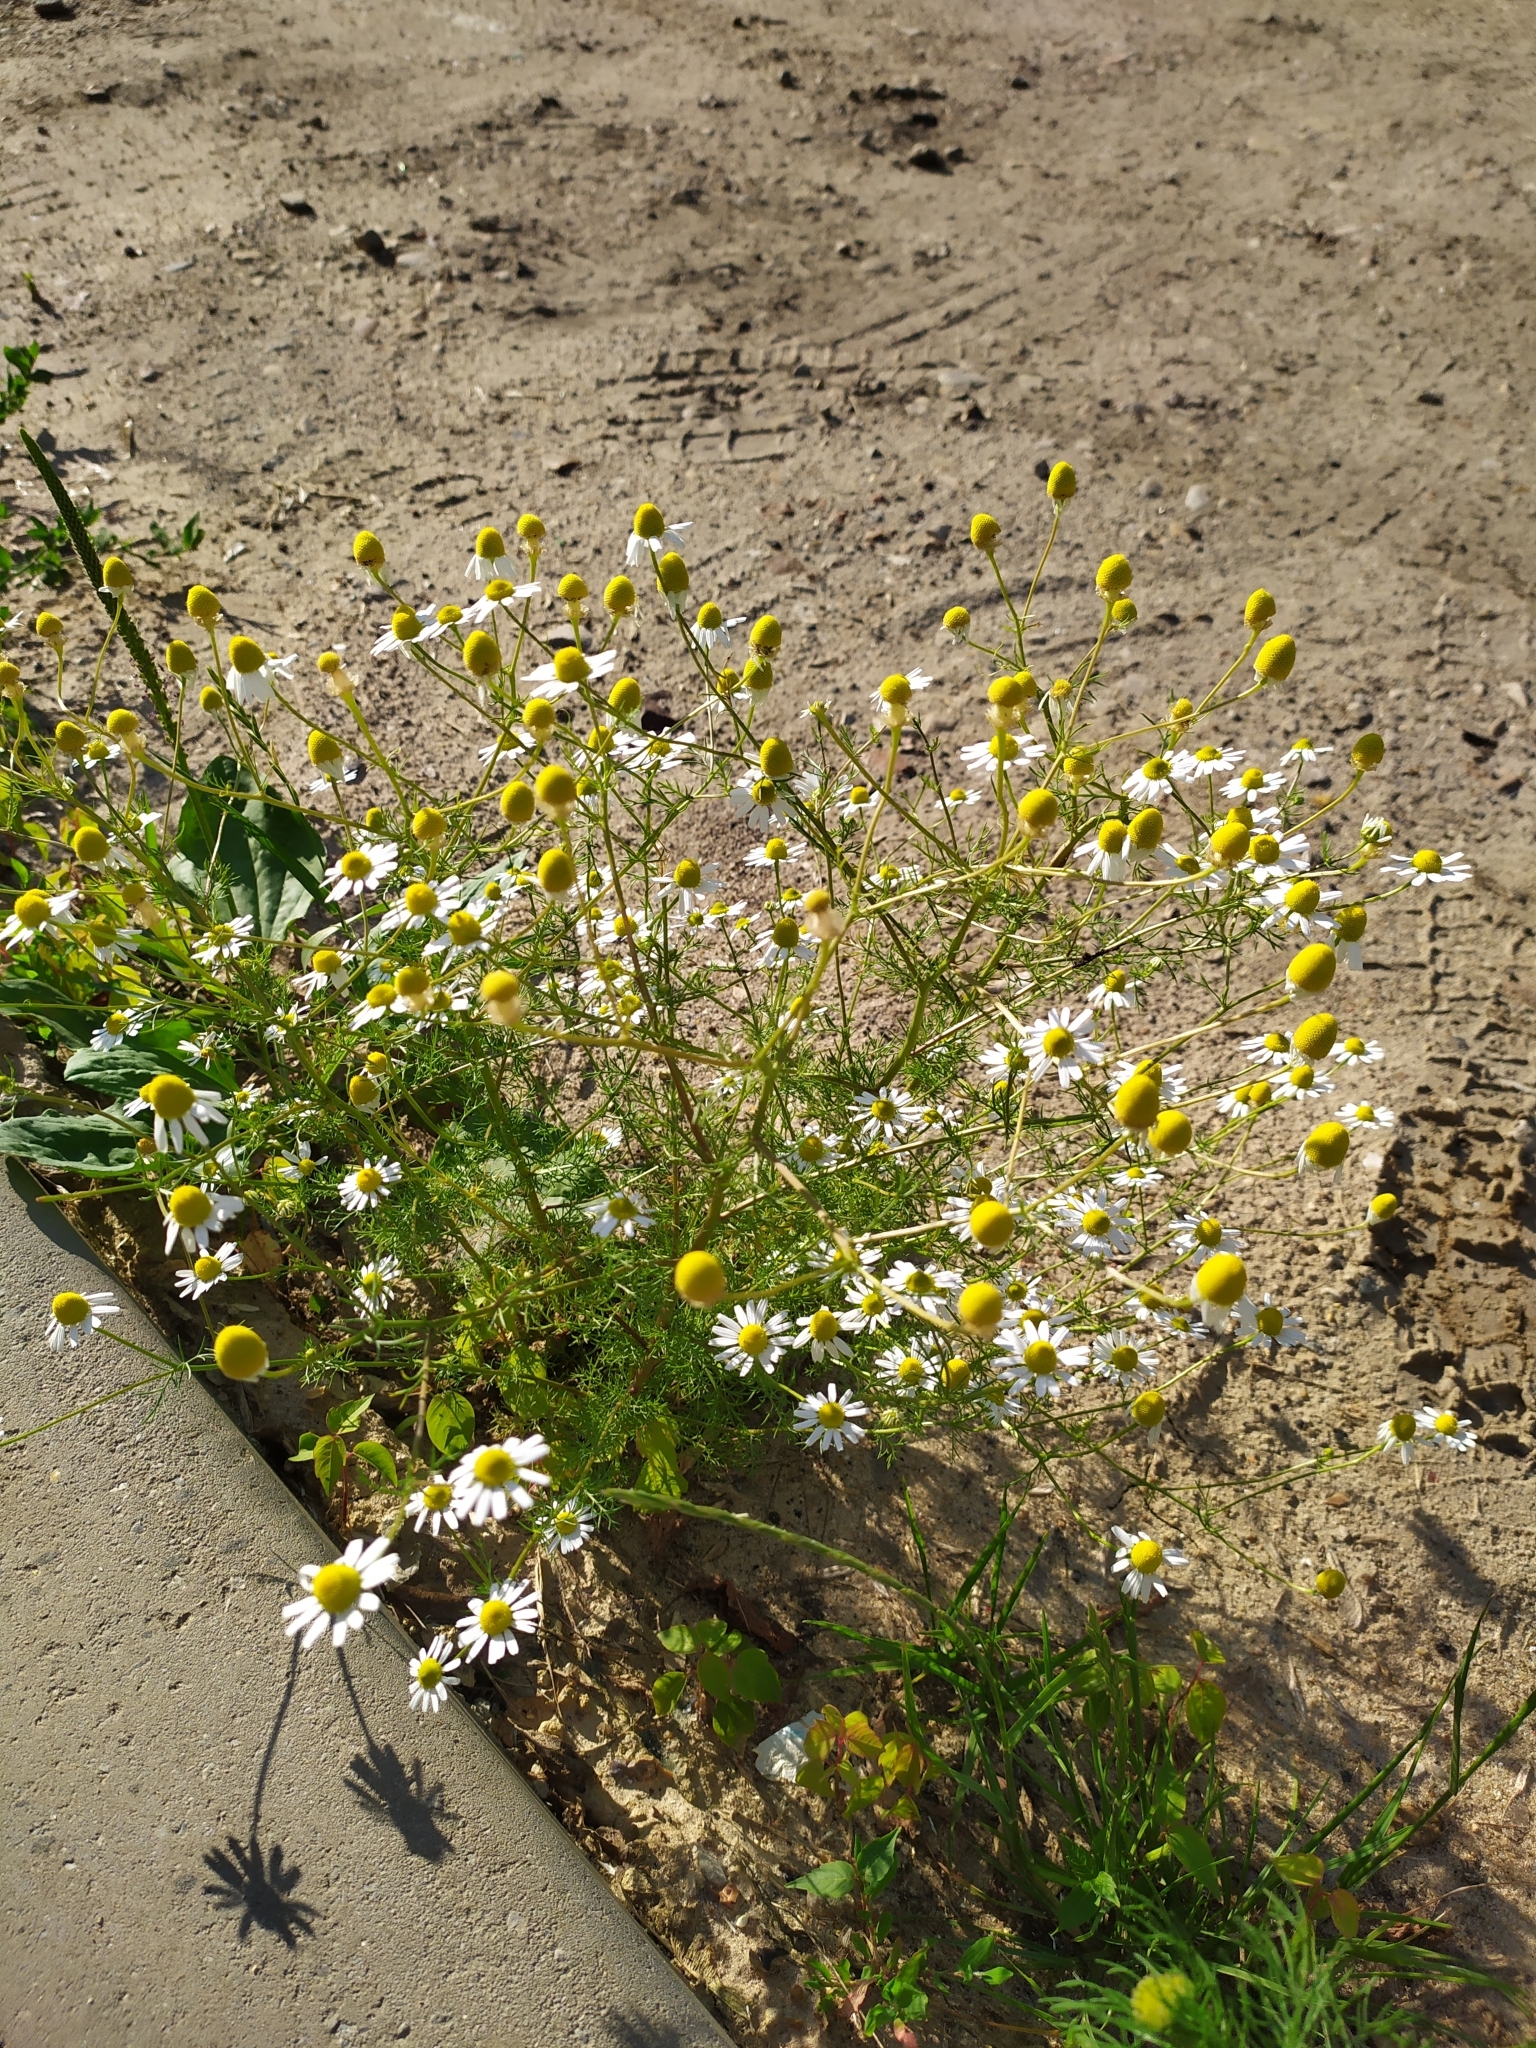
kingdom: Plantae
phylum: Tracheophyta
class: Magnoliopsida
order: Asterales
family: Asteraceae
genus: Tripleurospermum
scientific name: Tripleurospermum inodorum
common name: Scentless mayweed
